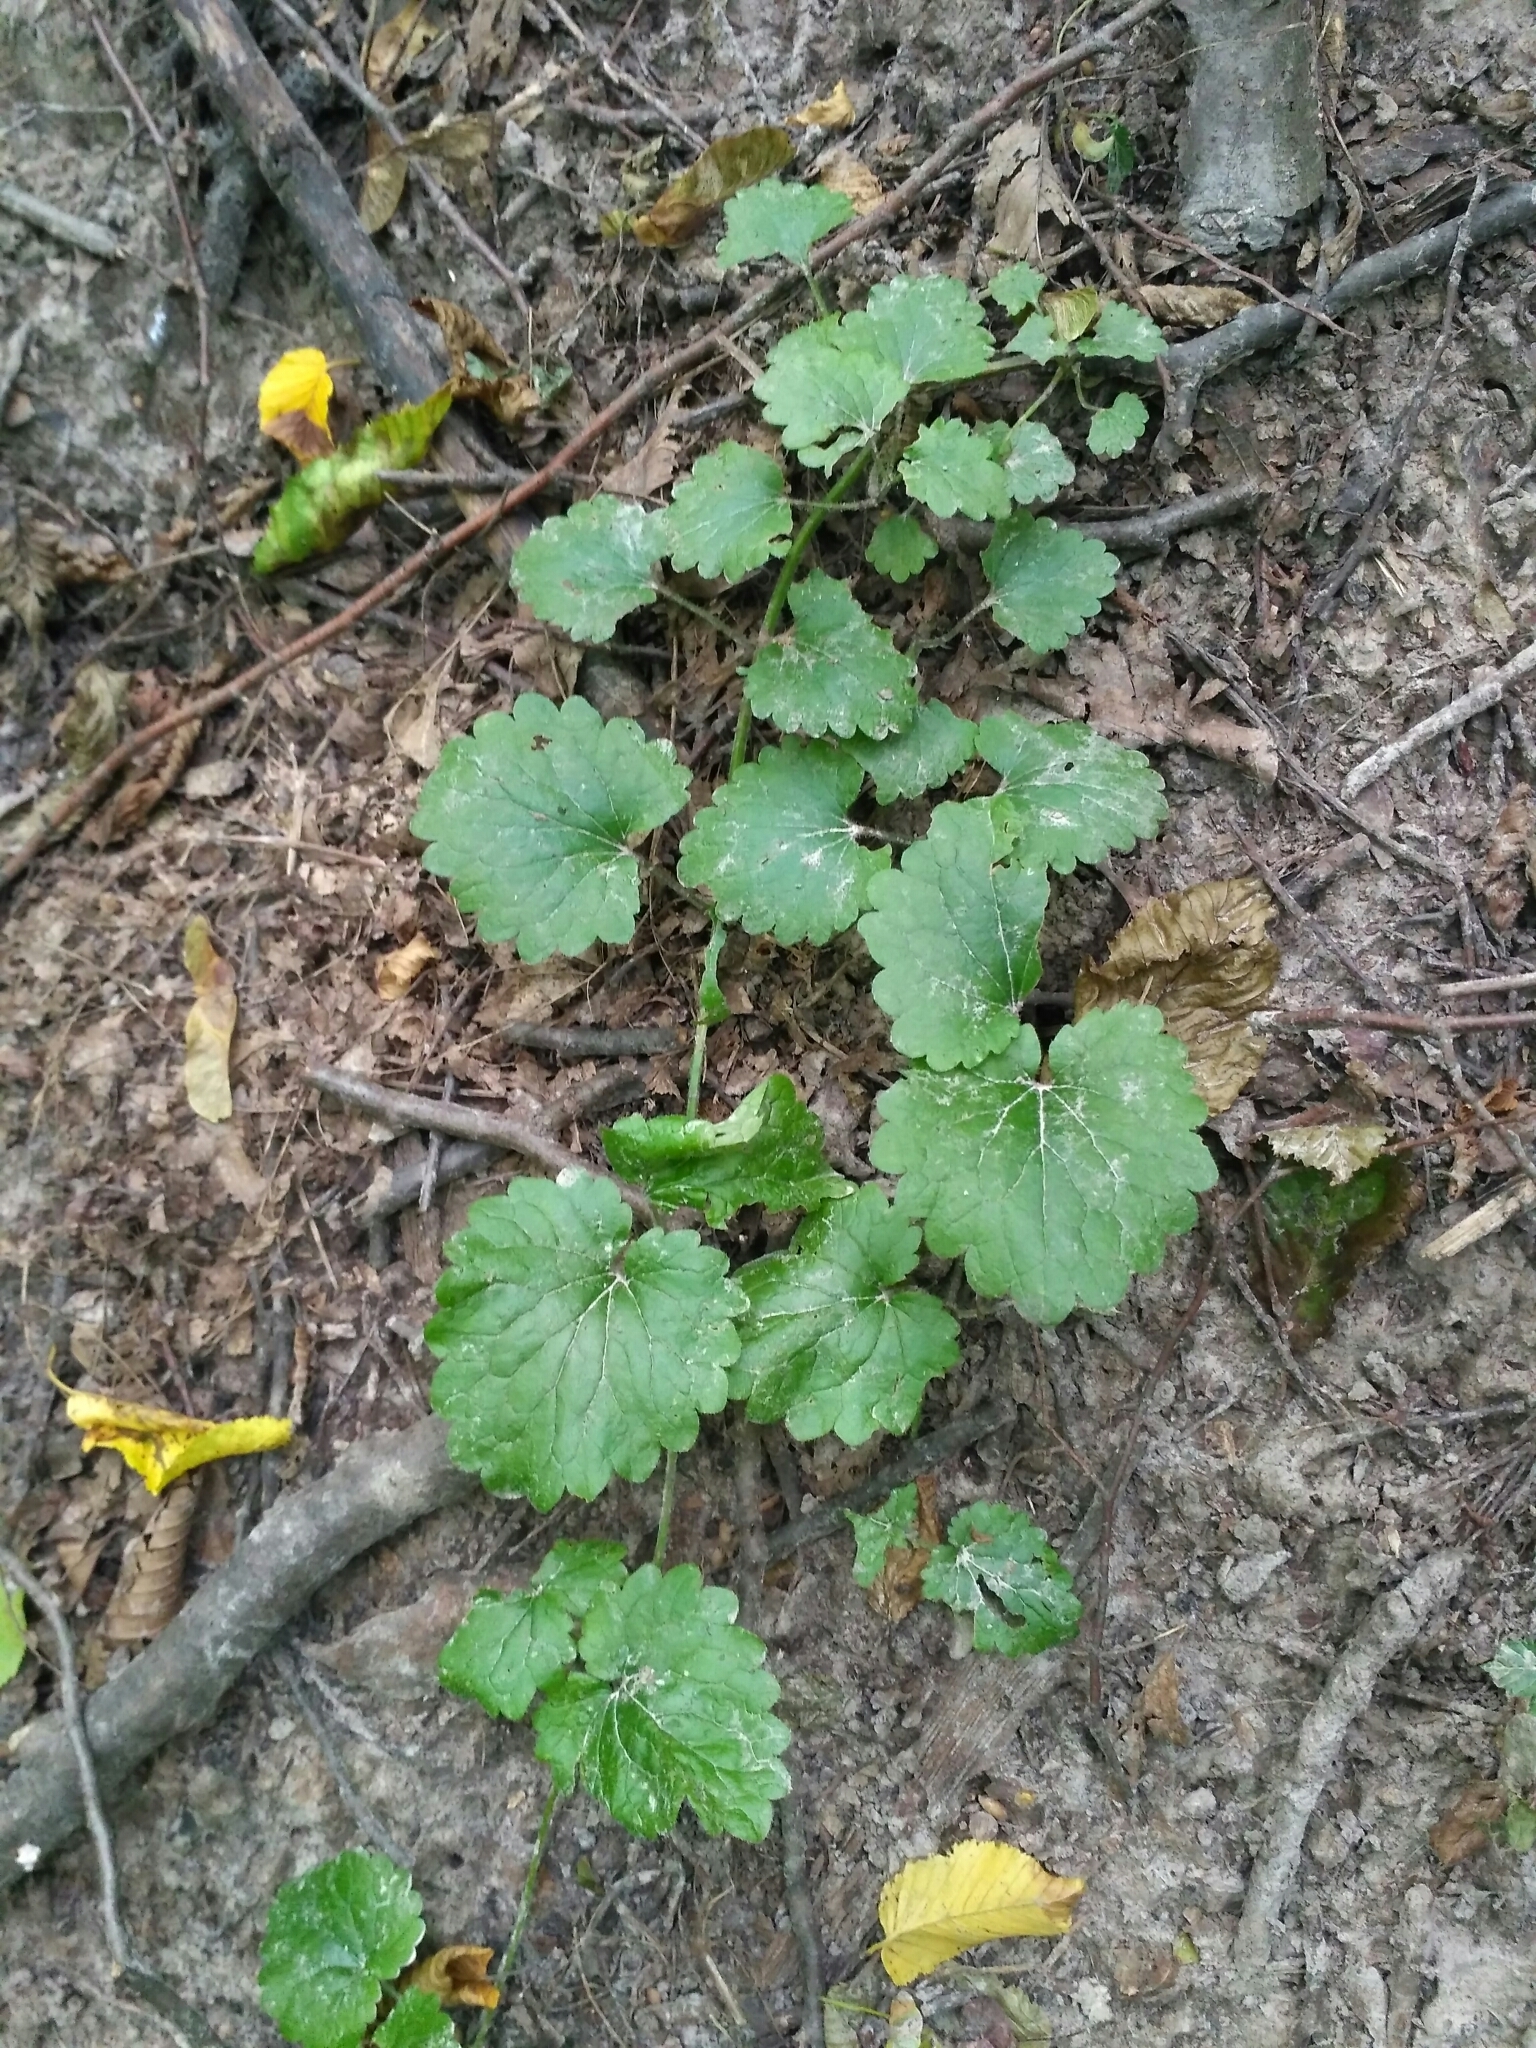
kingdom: Plantae
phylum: Tracheophyta
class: Magnoliopsida
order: Lamiales
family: Lamiaceae
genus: Glechoma
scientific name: Glechoma hederacea
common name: Ground ivy
